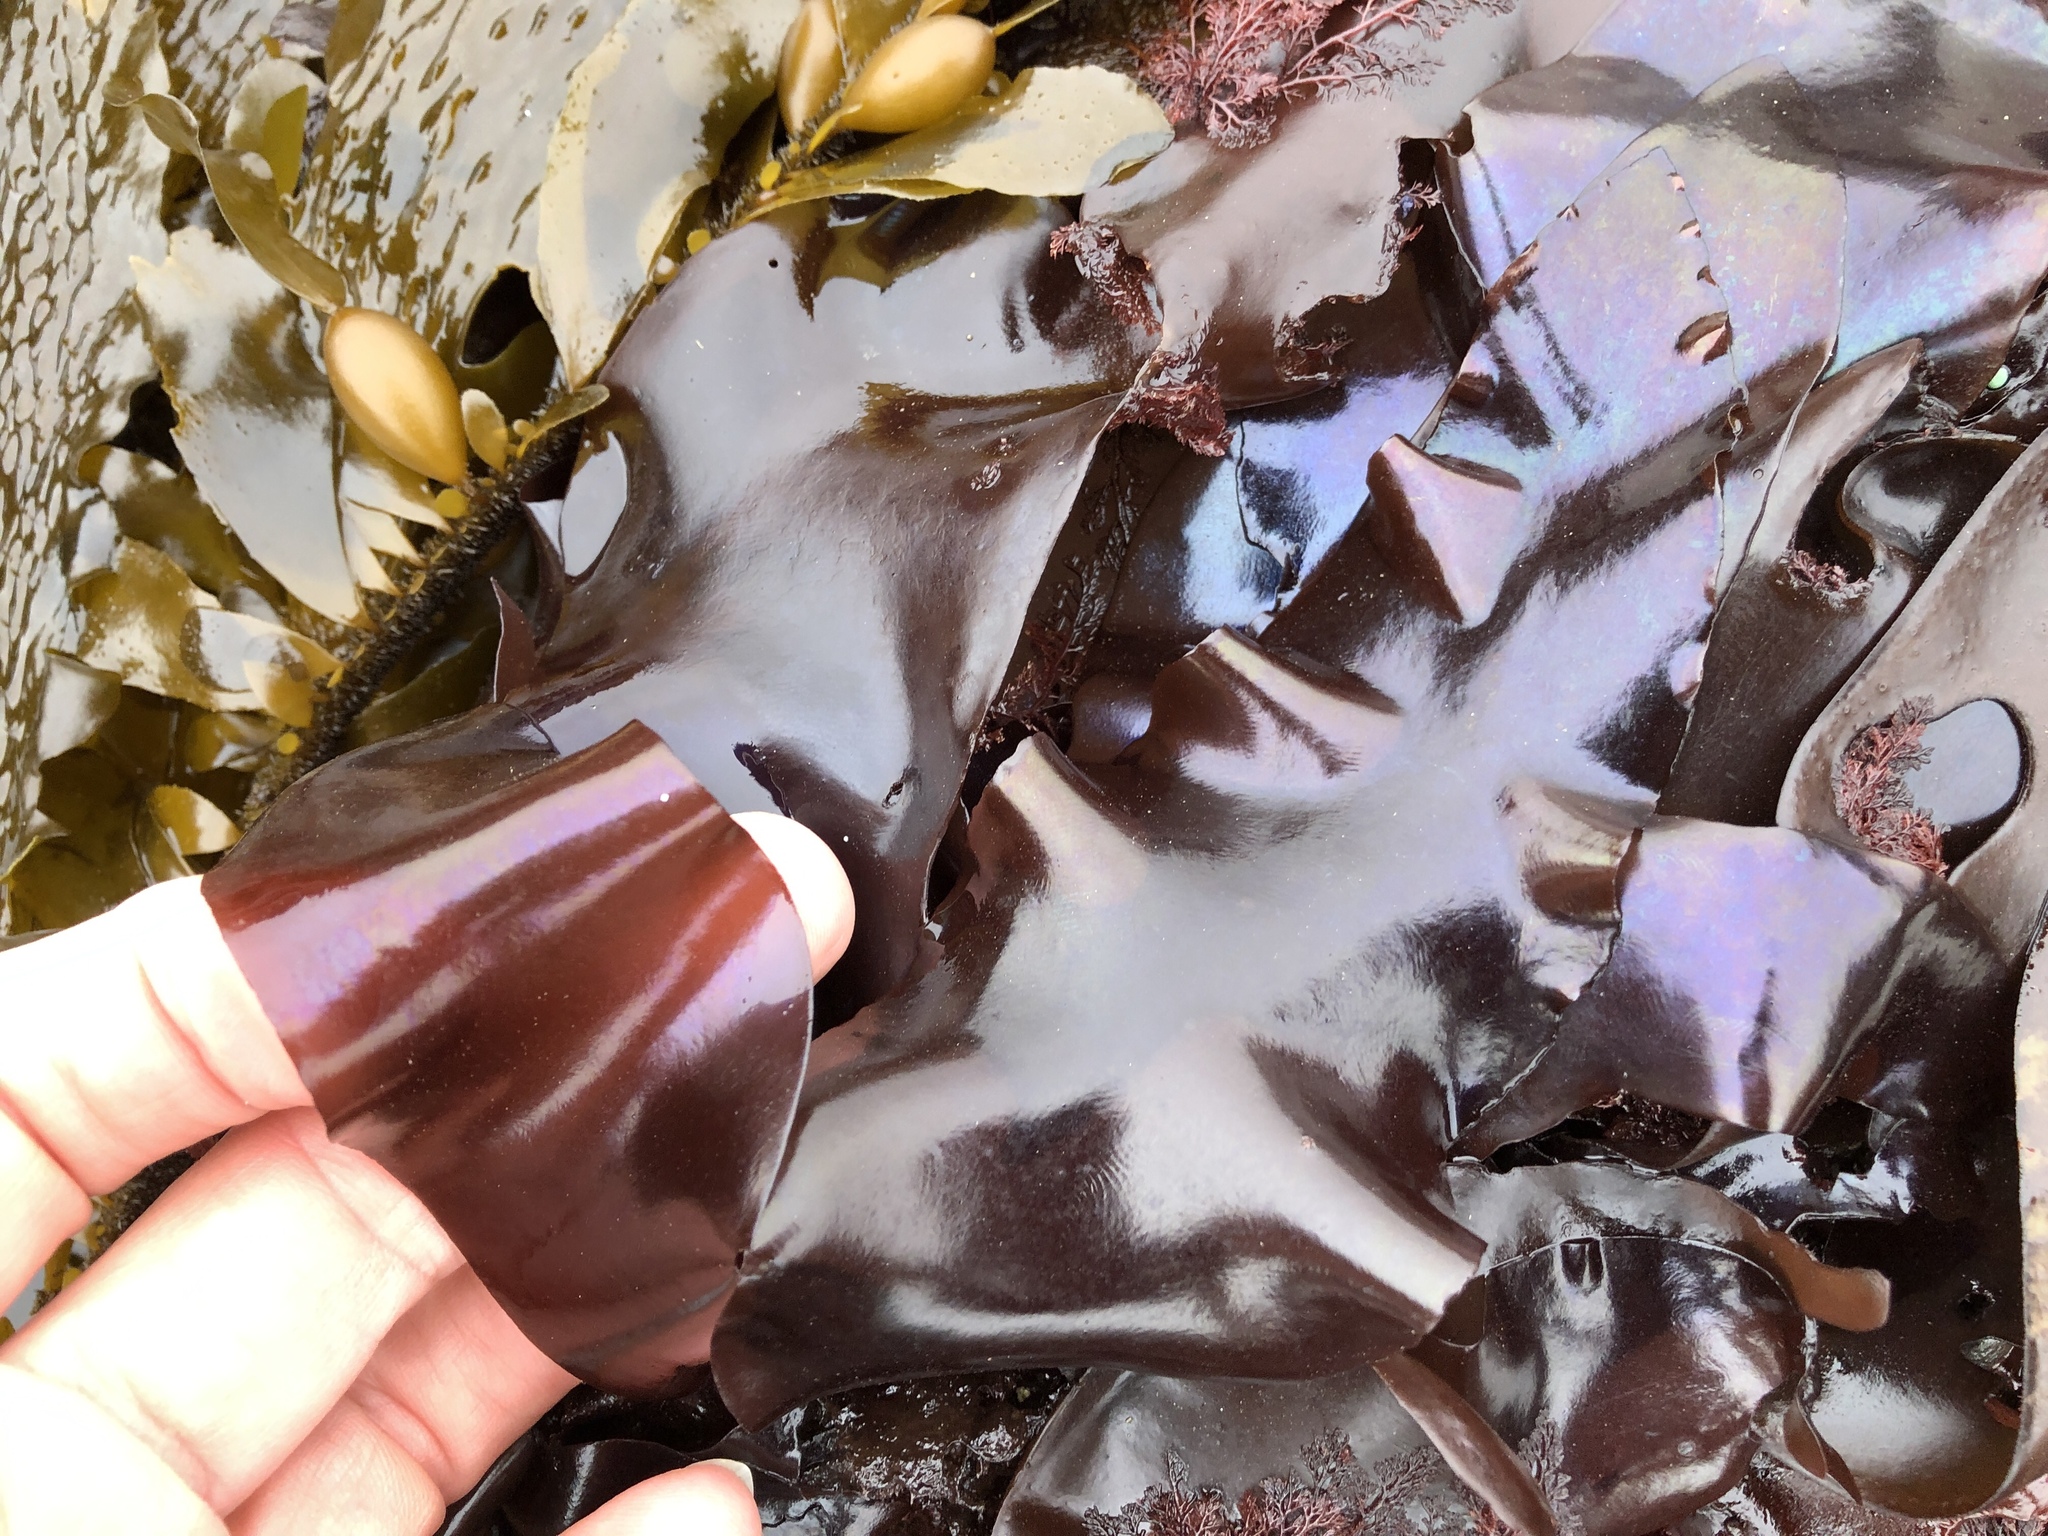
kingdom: Plantae
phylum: Rhodophyta
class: Florideophyceae
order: Gigartinales
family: Gigartinaceae
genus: Mazzaella
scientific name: Mazzaella splendens
